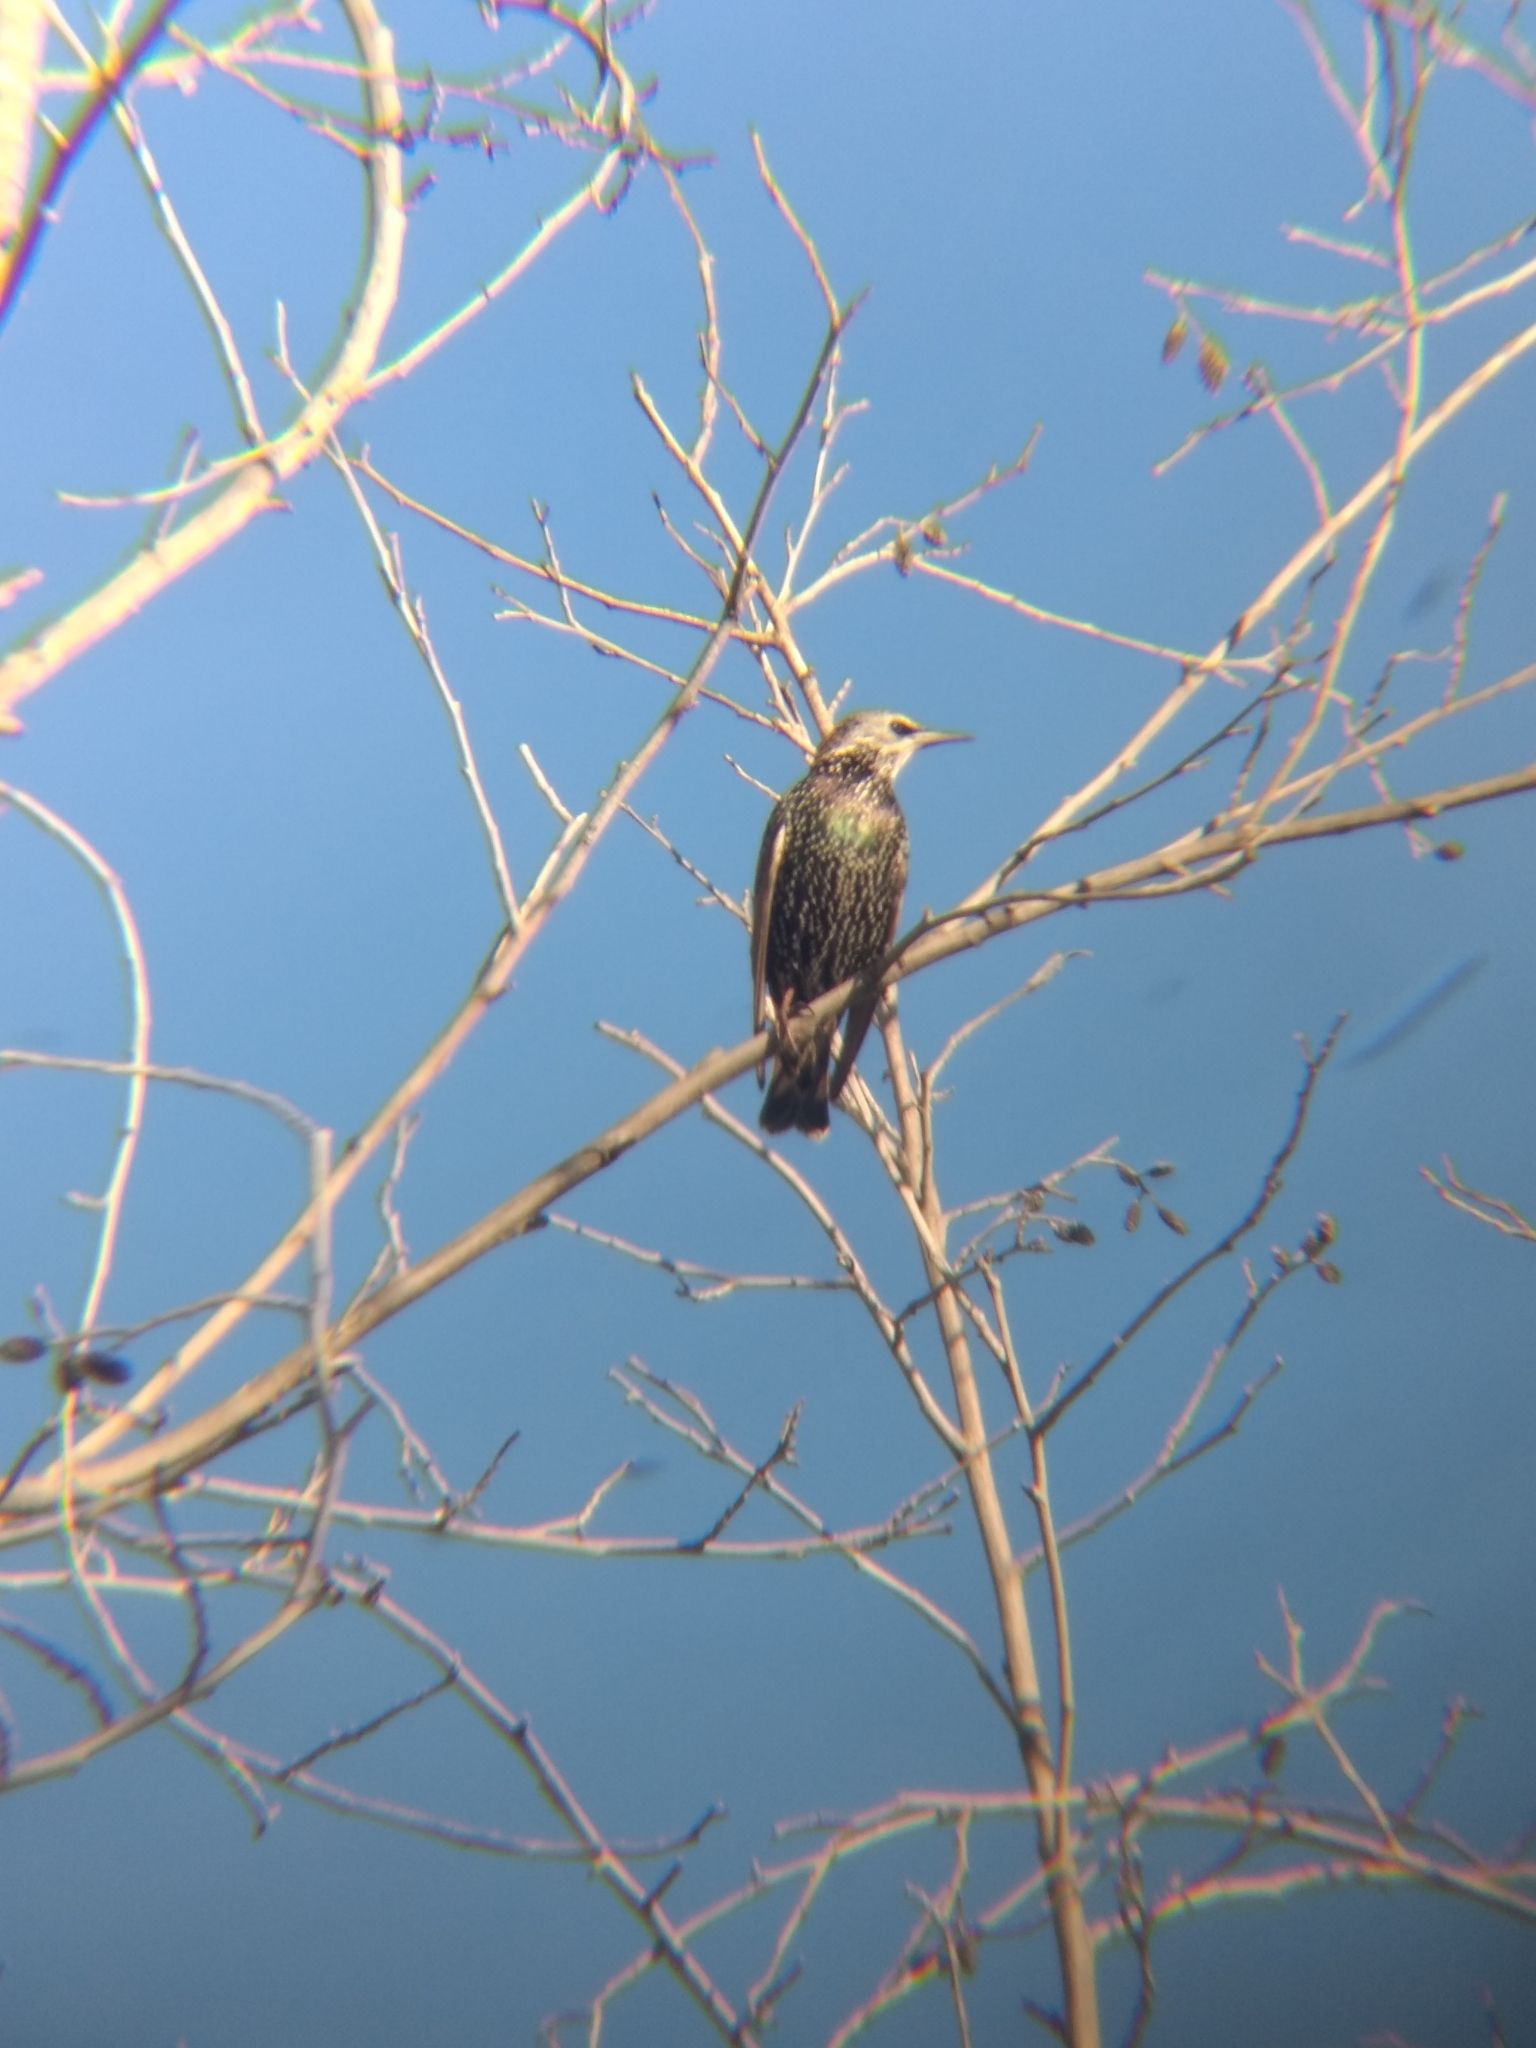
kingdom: Animalia
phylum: Chordata
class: Aves
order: Passeriformes
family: Sturnidae
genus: Sturnus
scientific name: Sturnus vulgaris
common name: Common starling
